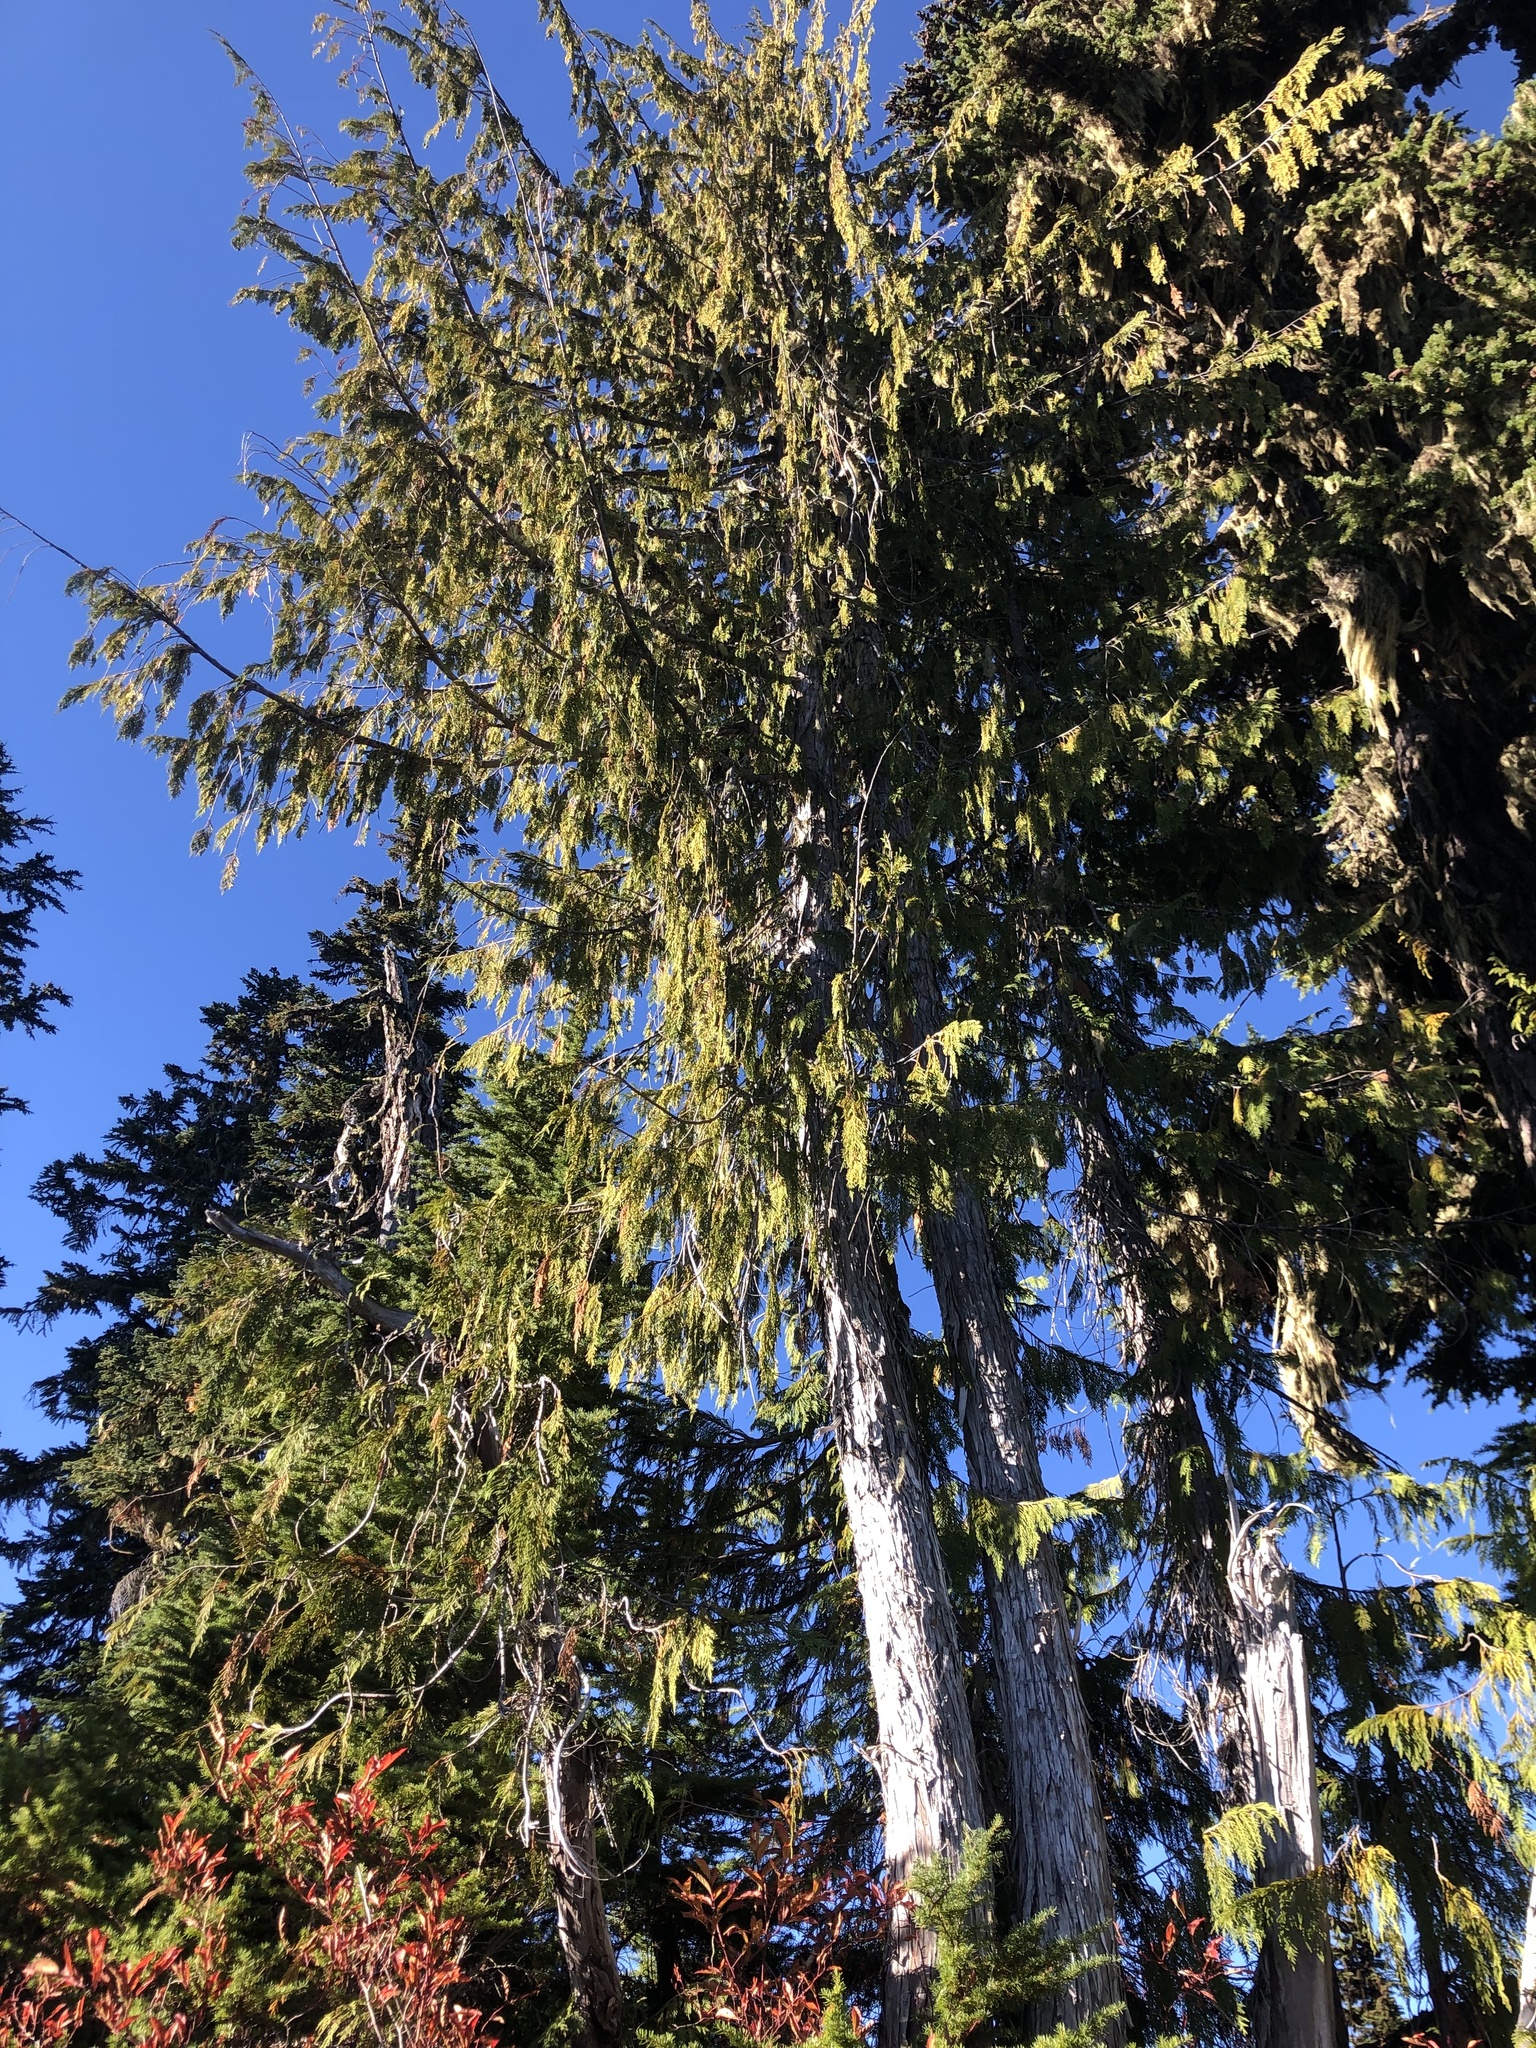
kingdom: Plantae
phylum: Tracheophyta
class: Pinopsida
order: Pinales
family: Cupressaceae
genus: Xanthocyparis
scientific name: Xanthocyparis nootkatensis
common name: Nootka cypress
